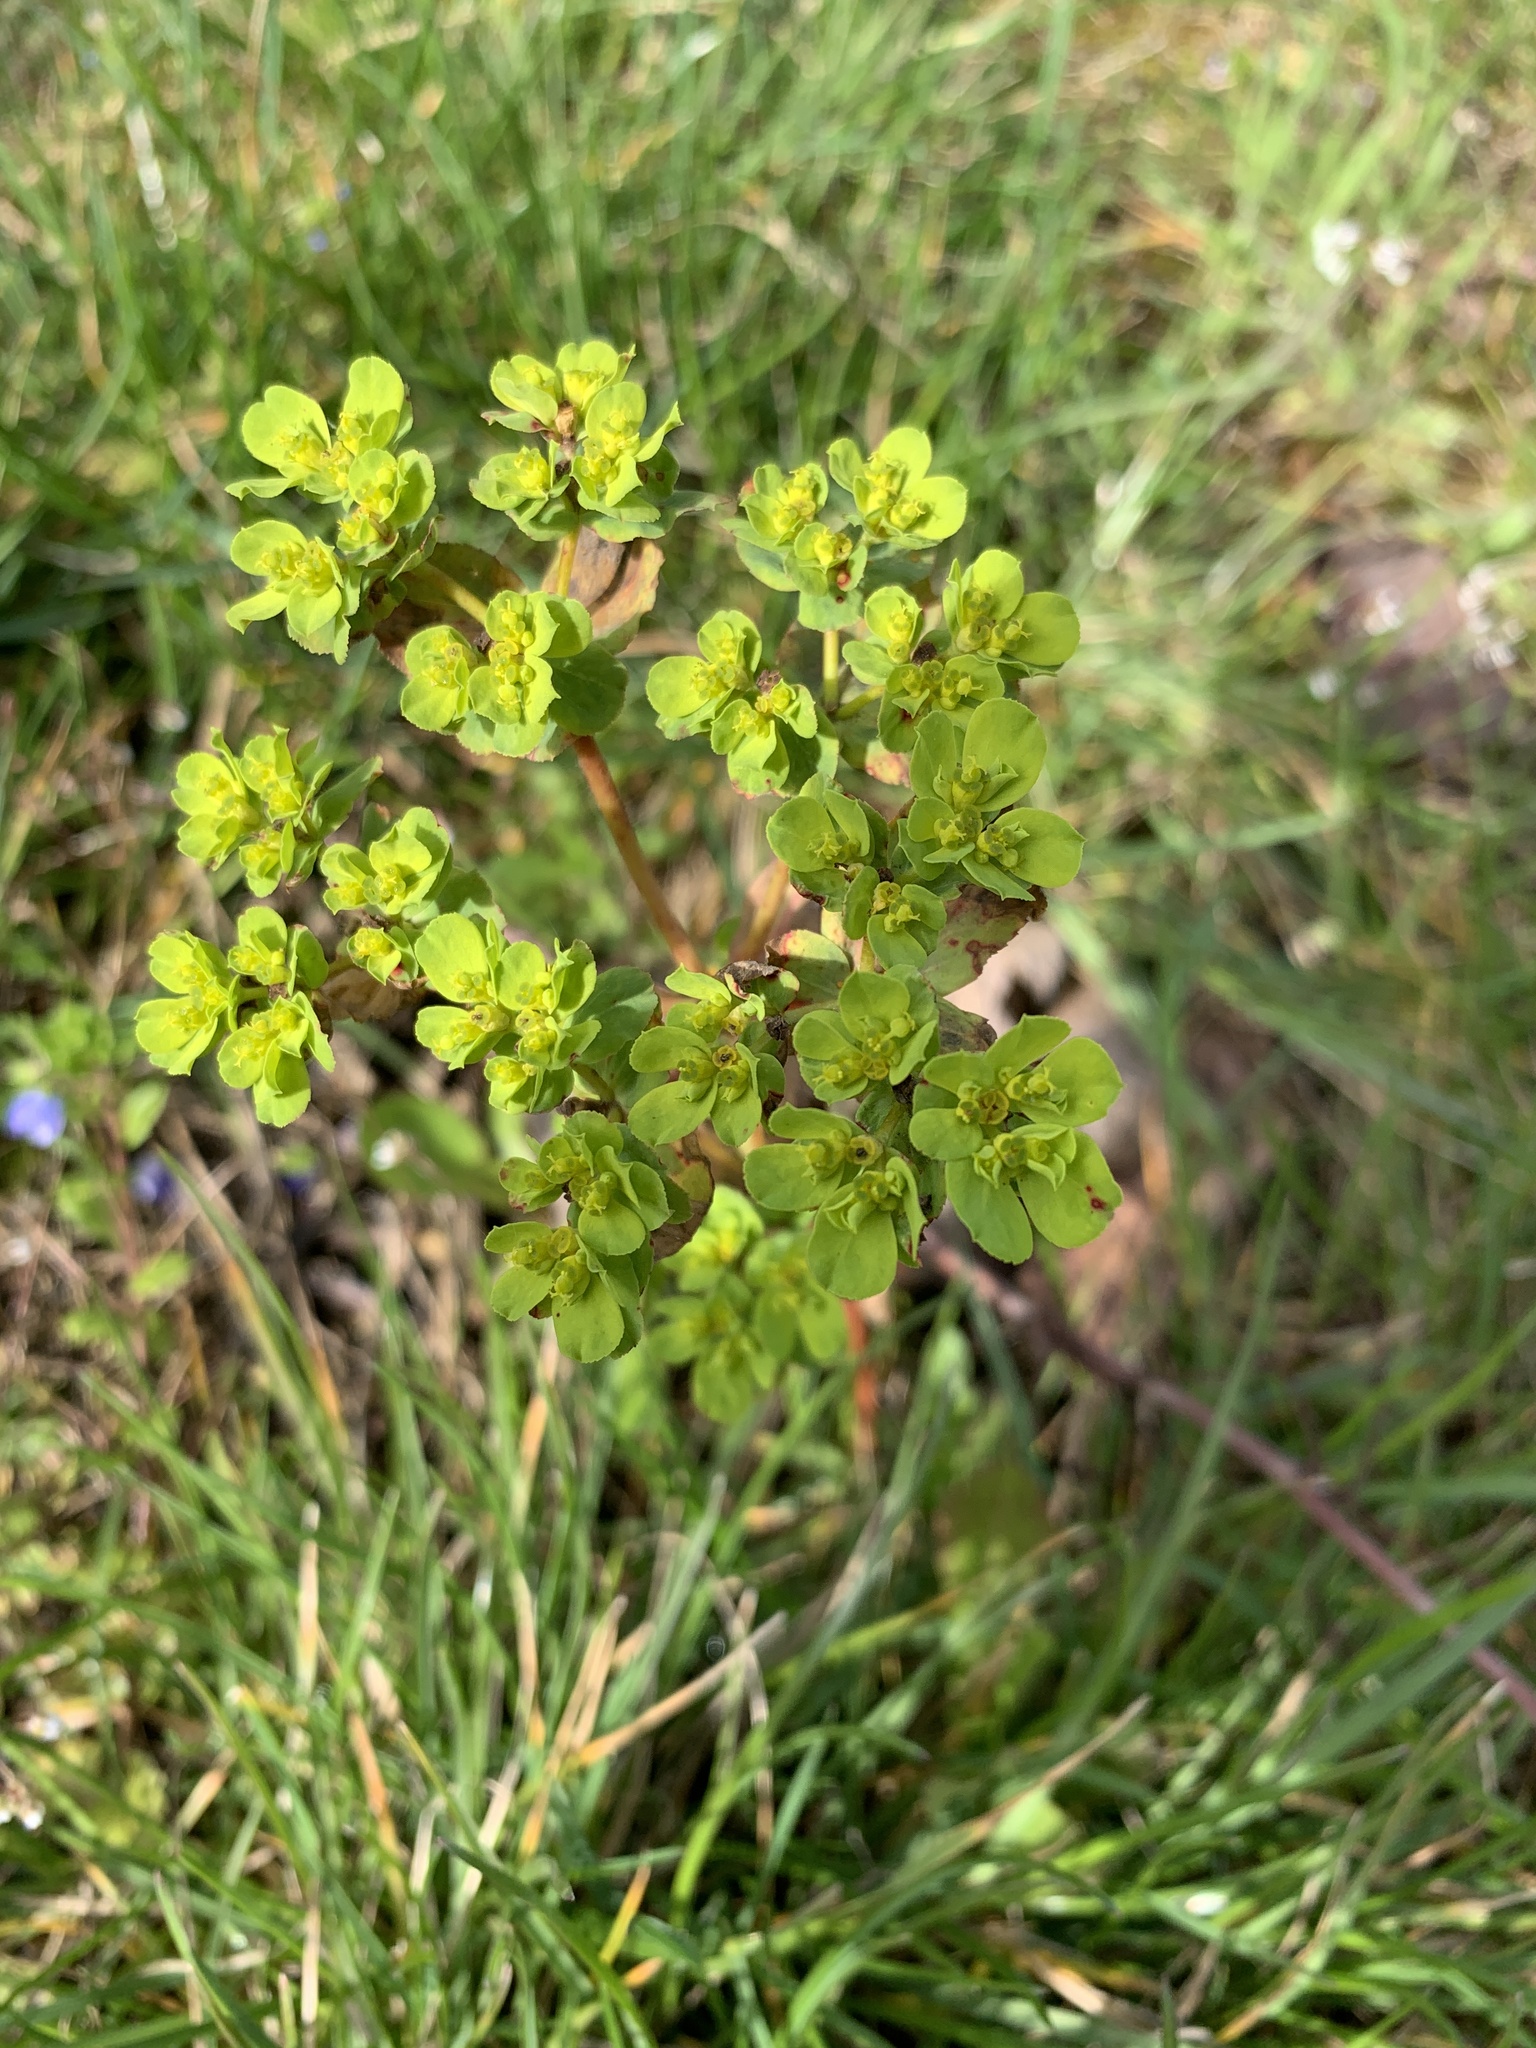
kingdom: Plantae
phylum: Tracheophyta
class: Magnoliopsida
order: Malpighiales
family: Euphorbiaceae
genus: Euphorbia
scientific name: Euphorbia helioscopia
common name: Sun spurge
